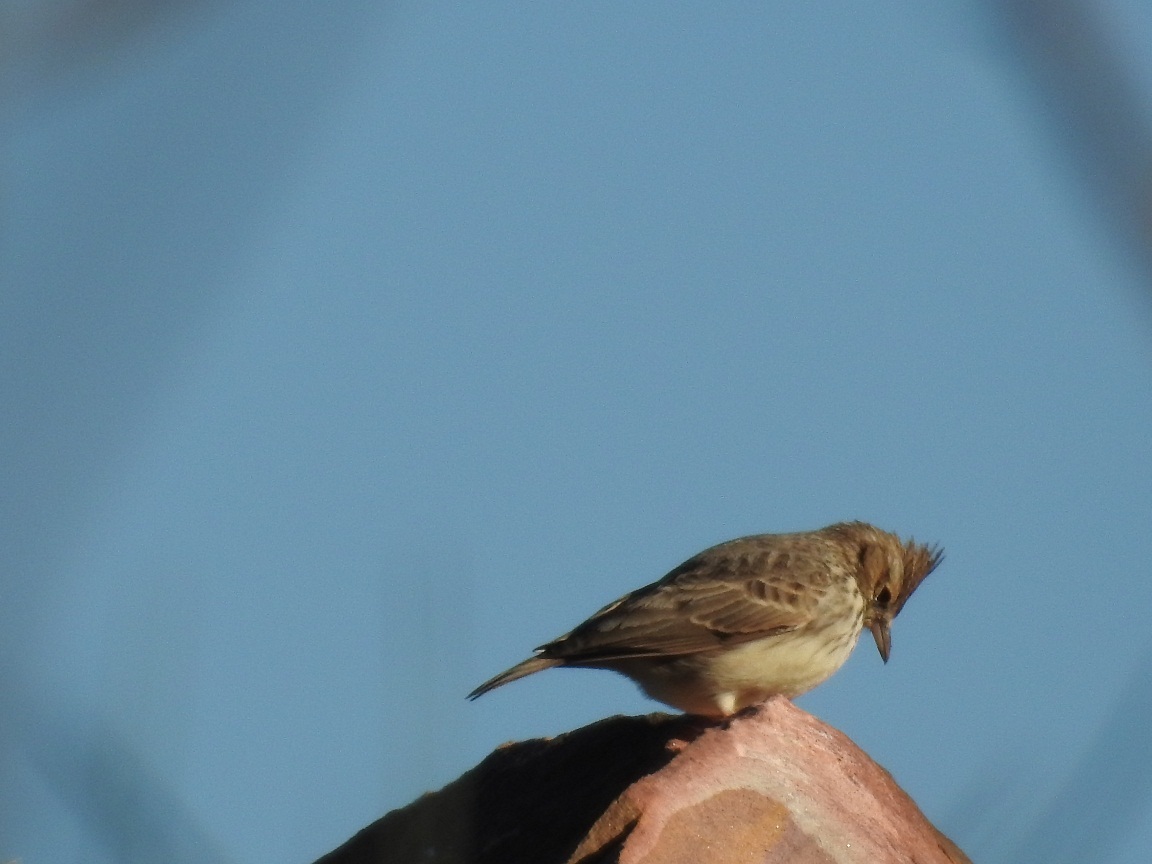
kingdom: Animalia
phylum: Chordata
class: Aves
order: Passeriformes
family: Alaudidae
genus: Galerida
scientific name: Galerida cristata
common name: Crested lark
